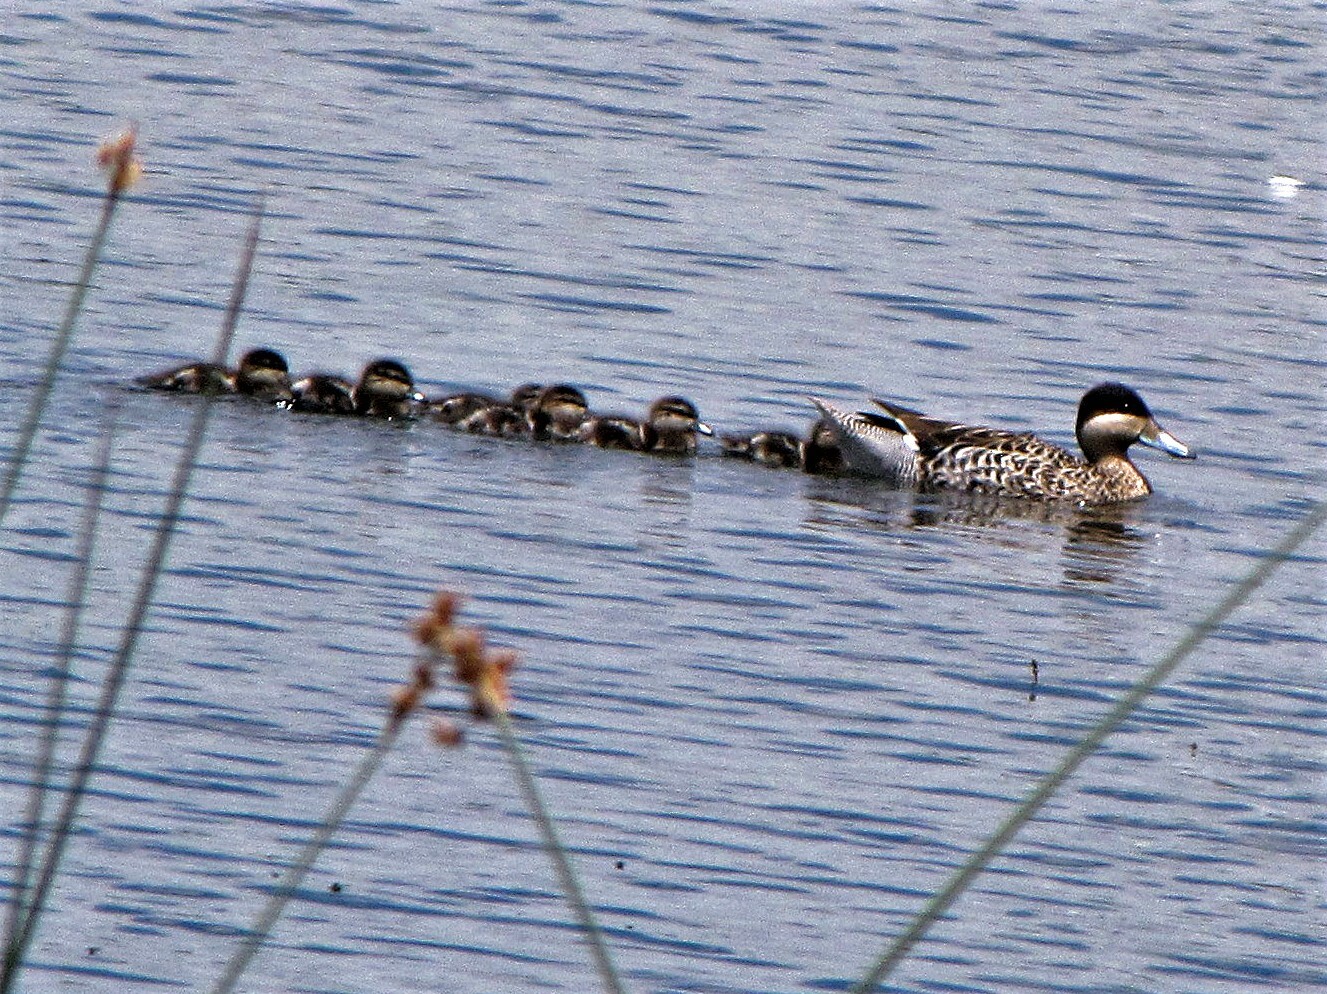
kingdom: Animalia
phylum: Chordata
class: Aves
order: Anseriformes
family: Anatidae
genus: Spatula
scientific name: Spatula versicolor
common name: Silver teal
